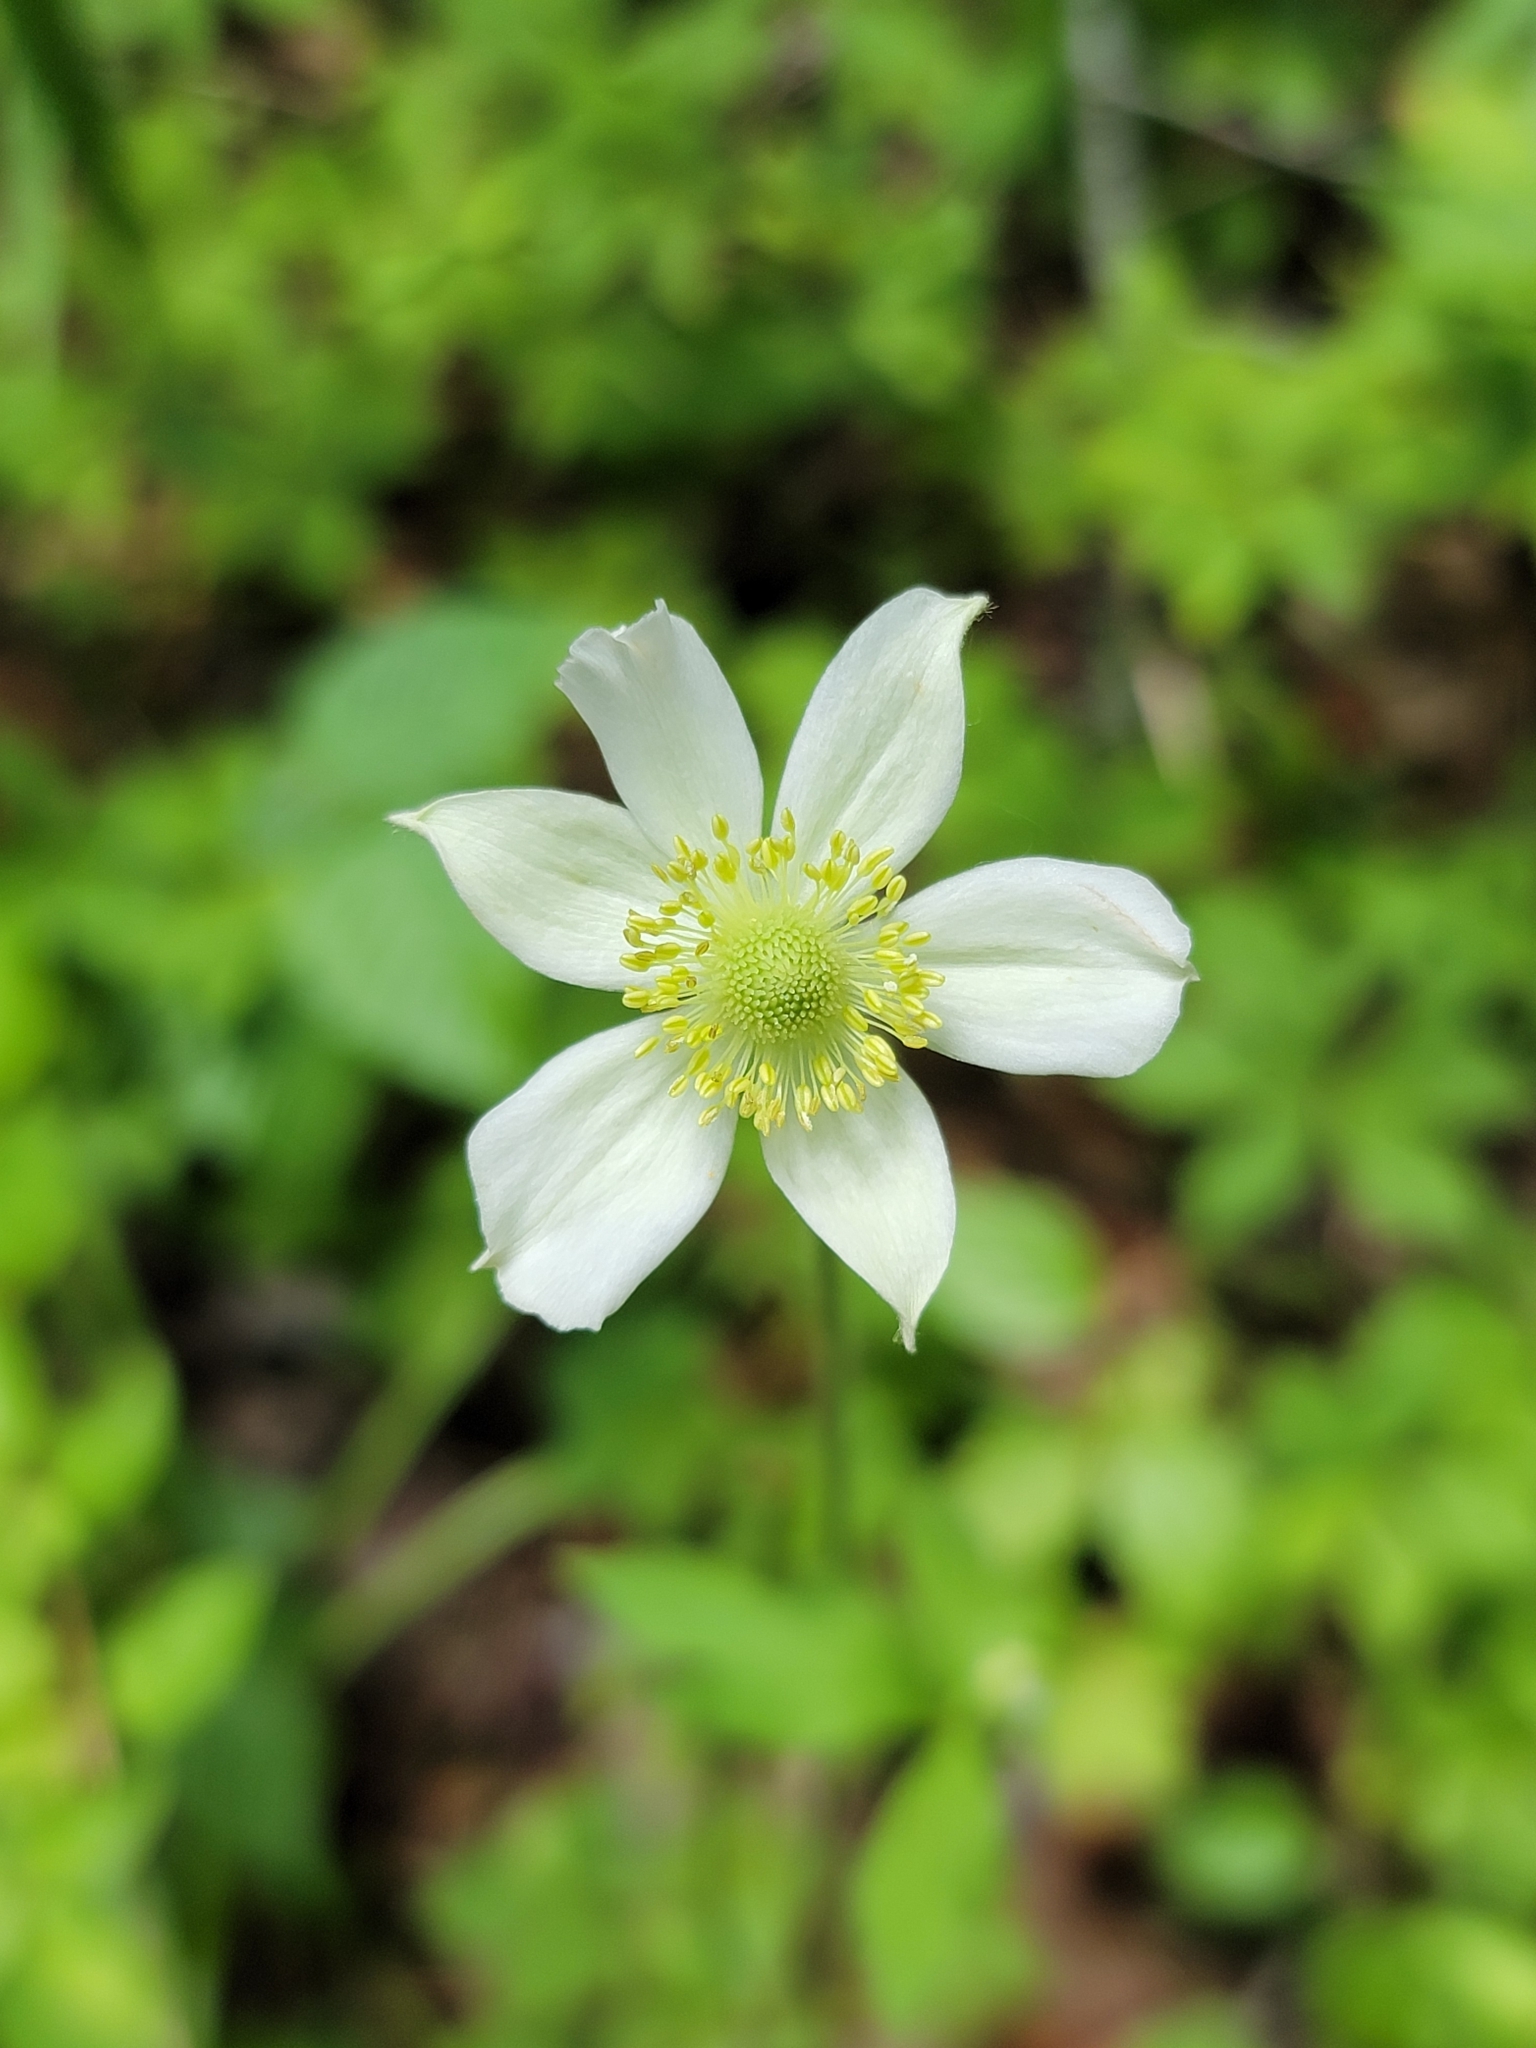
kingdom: Plantae
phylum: Tracheophyta
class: Magnoliopsida
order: Ranunculales
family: Ranunculaceae
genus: Anemone
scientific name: Anemone virginiana
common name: Tall anemone
